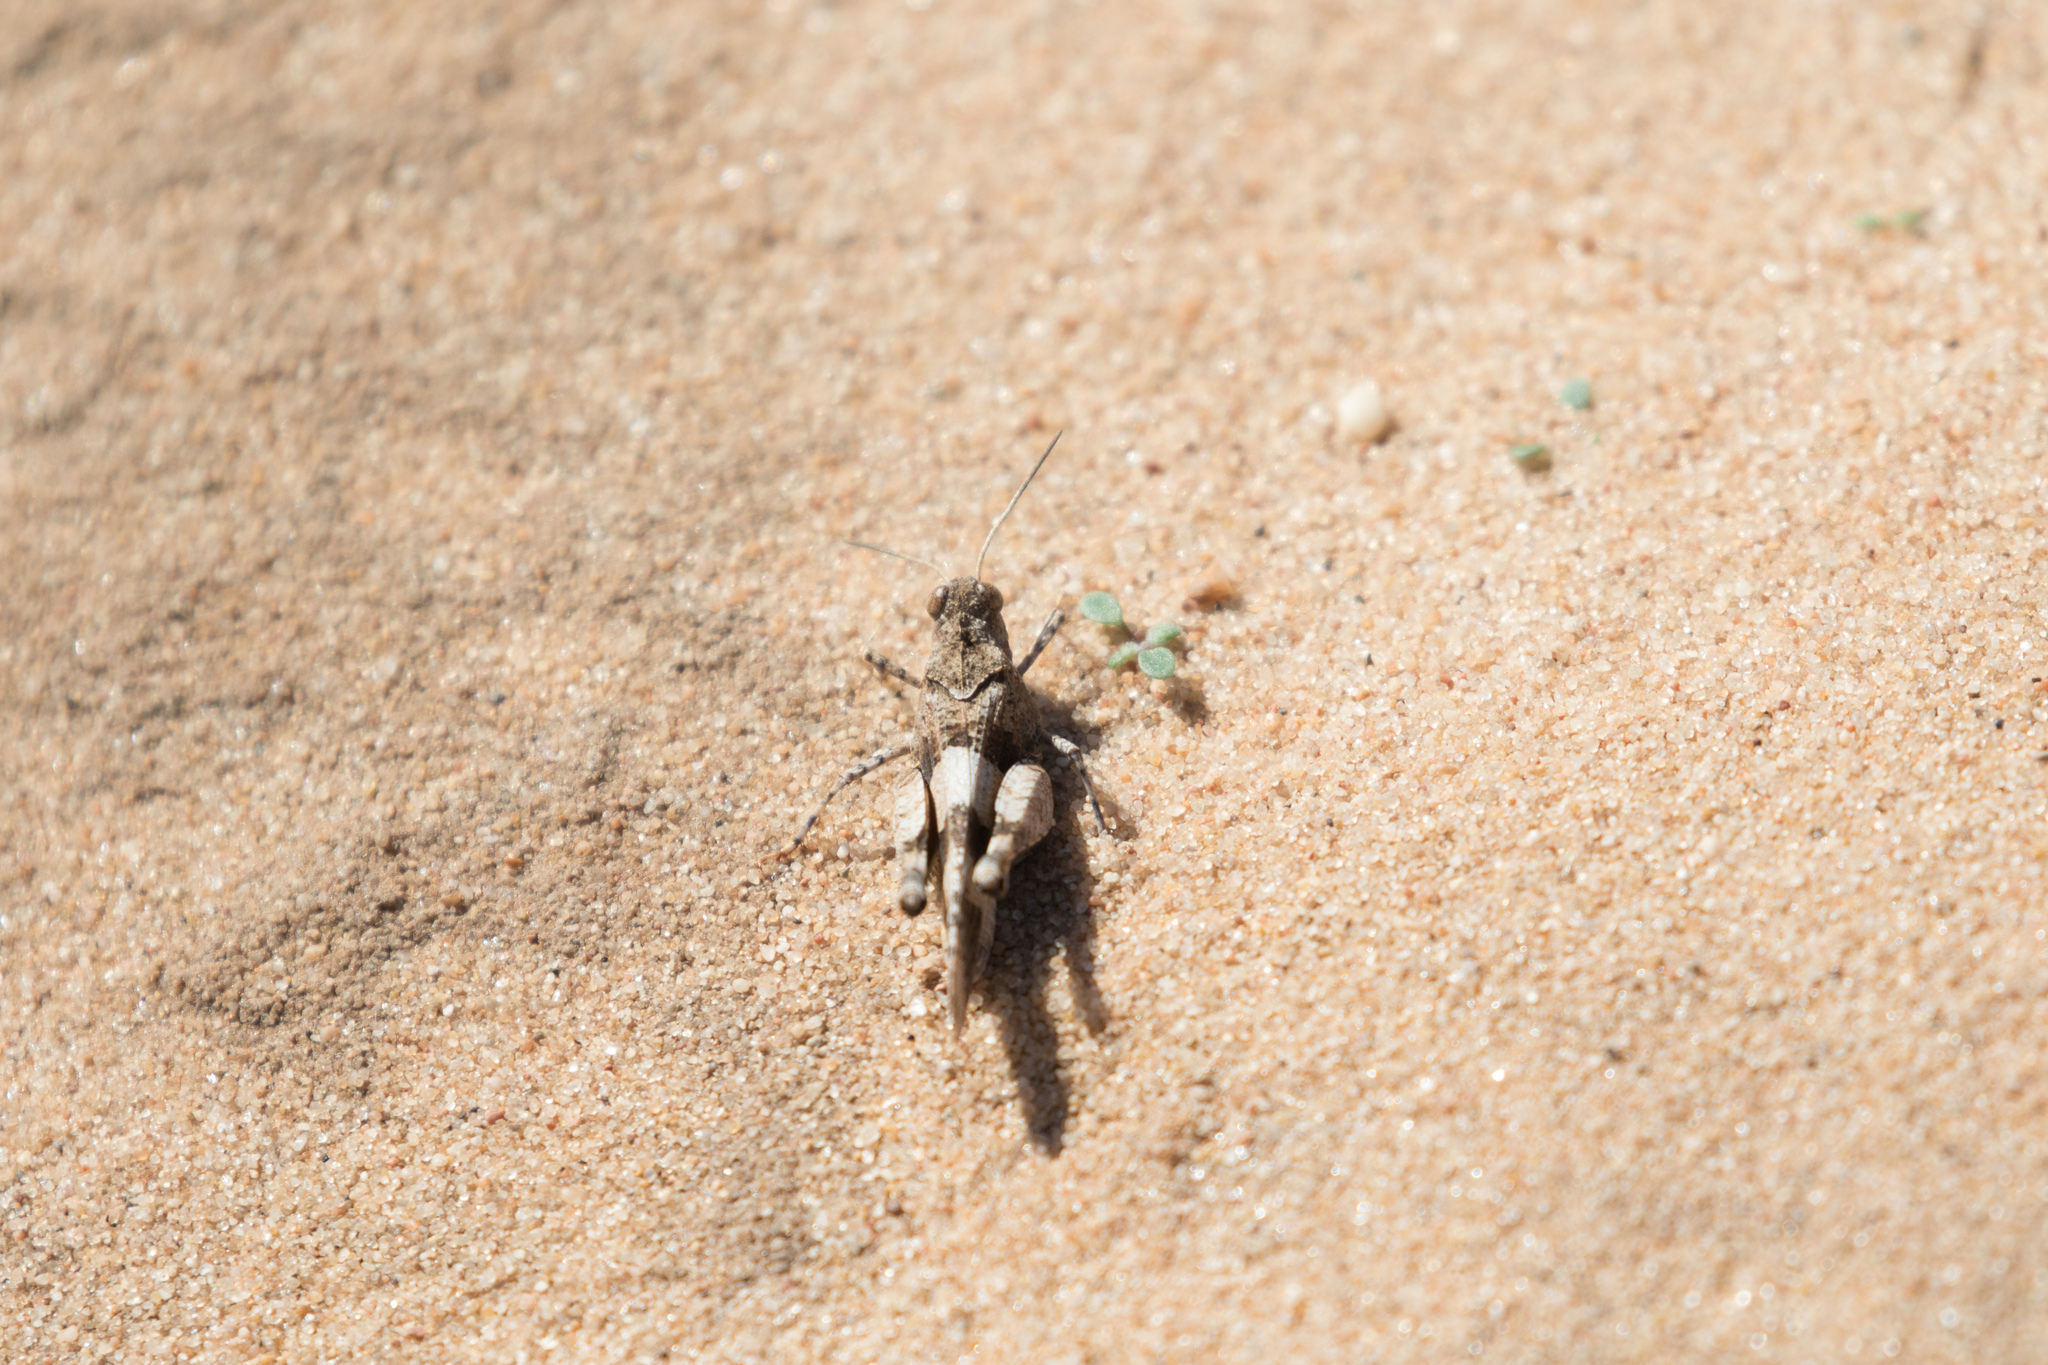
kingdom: Animalia
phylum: Arthropoda
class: Insecta
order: Orthoptera
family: Acrididae
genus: Oedipoda
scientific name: Oedipoda caerulescens
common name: Blue-winged grasshopper
